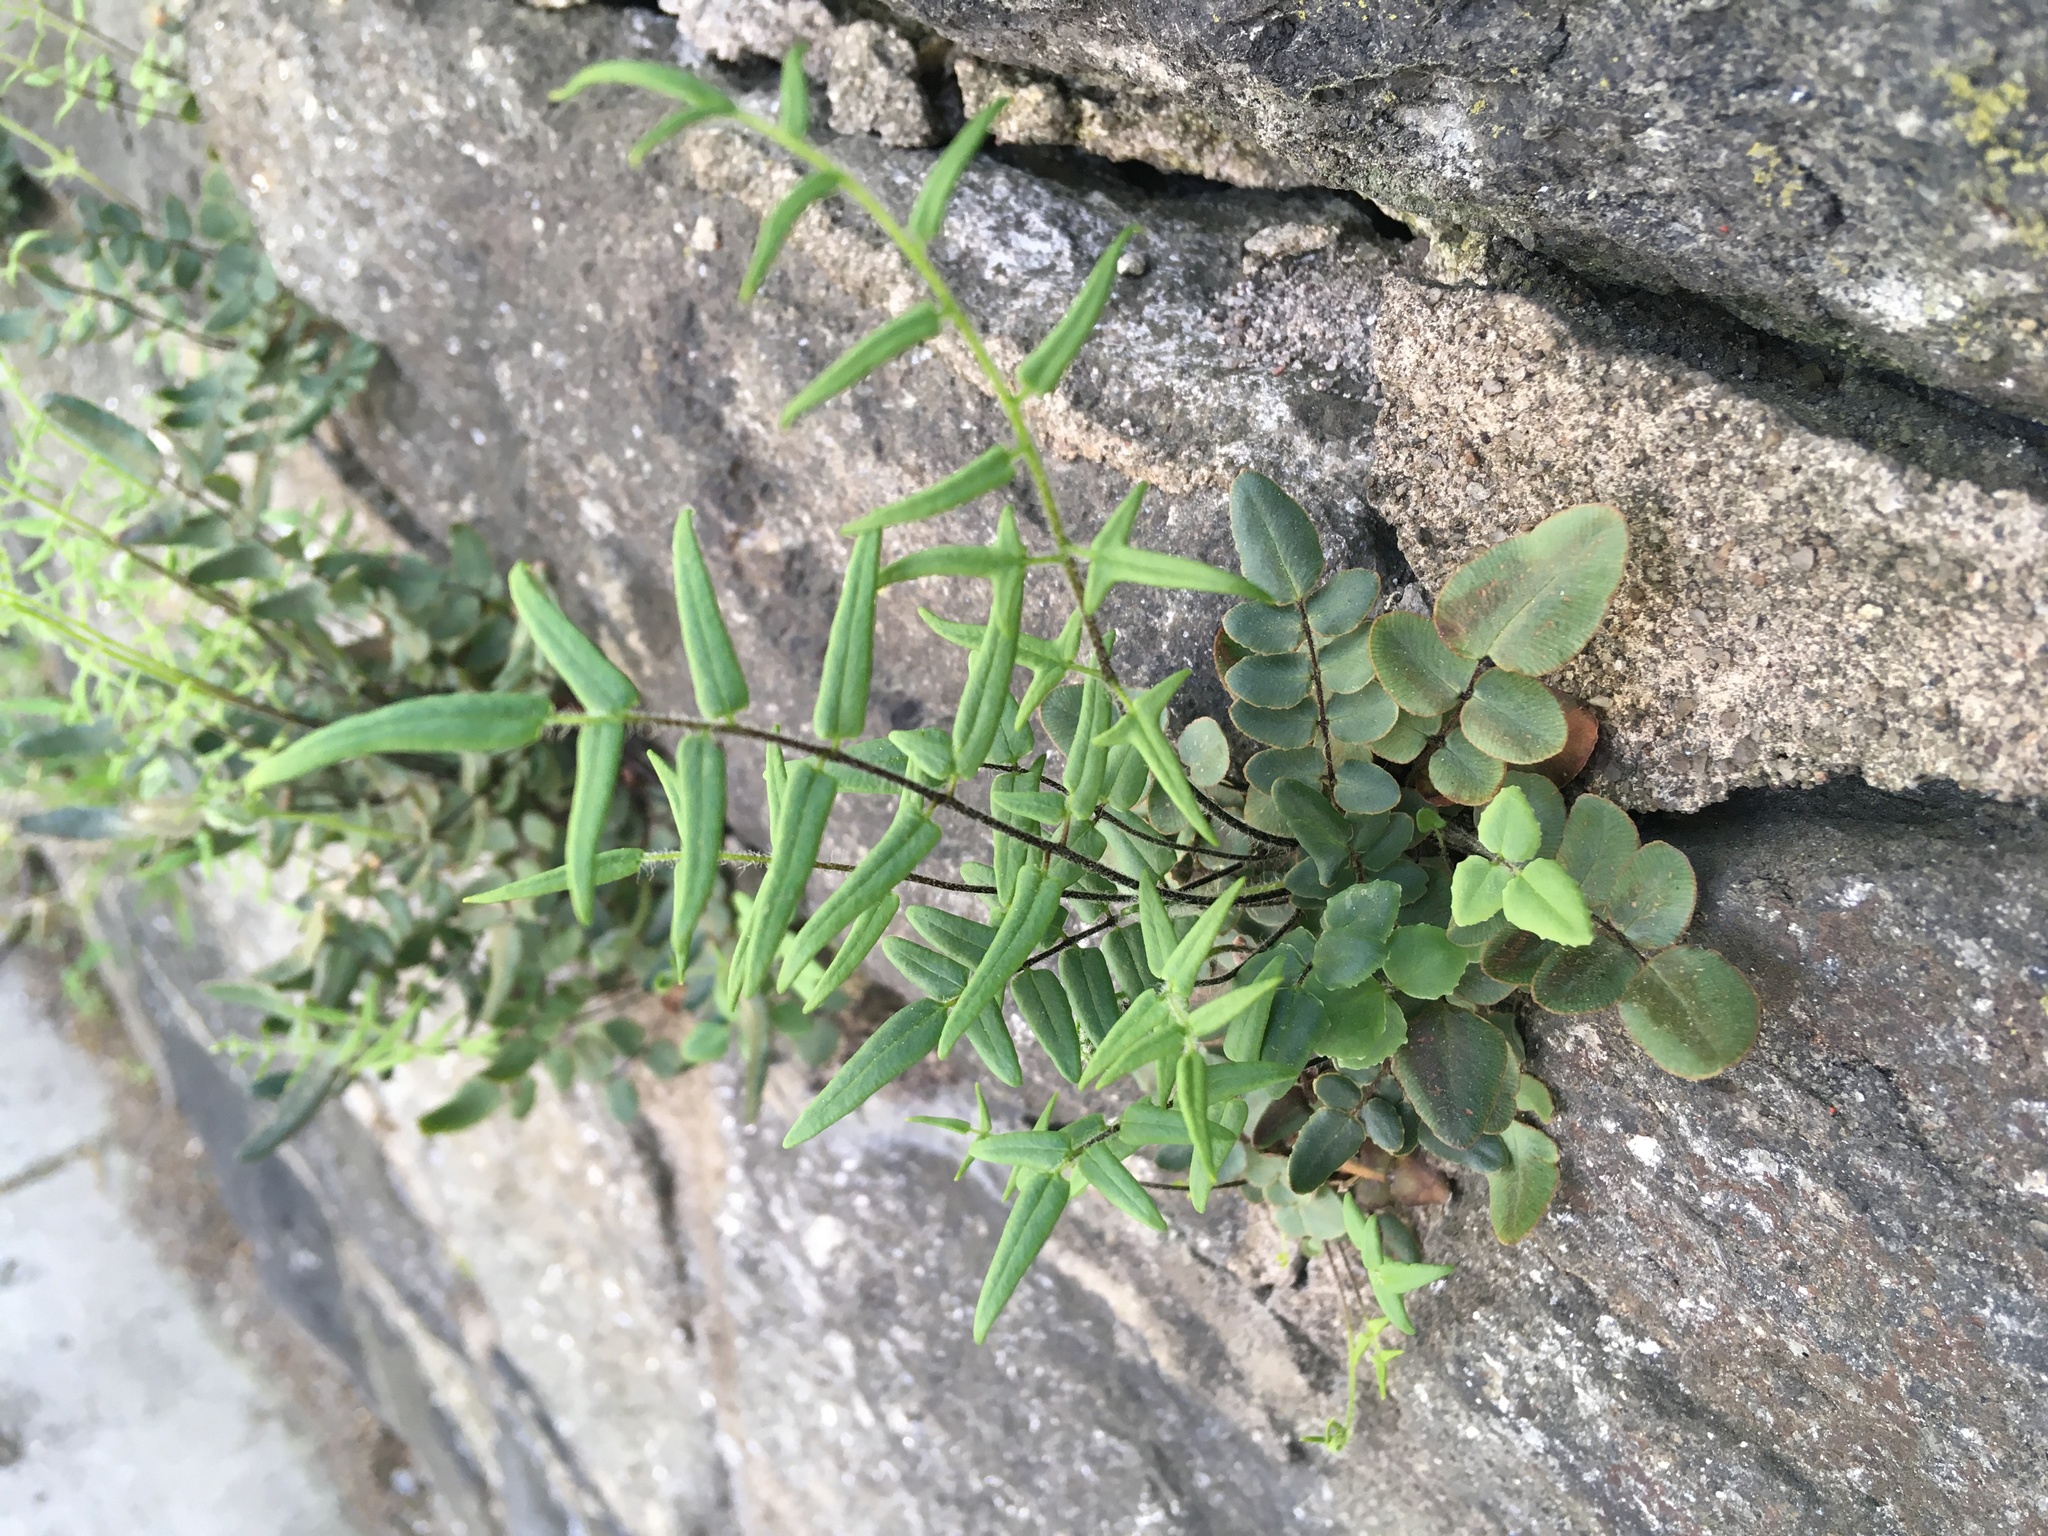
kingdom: Plantae
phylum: Tracheophyta
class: Polypodiopsida
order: Polypodiales
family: Pteridaceae
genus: Pellaea
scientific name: Pellaea atropurpurea
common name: Hairy cliffbrake
